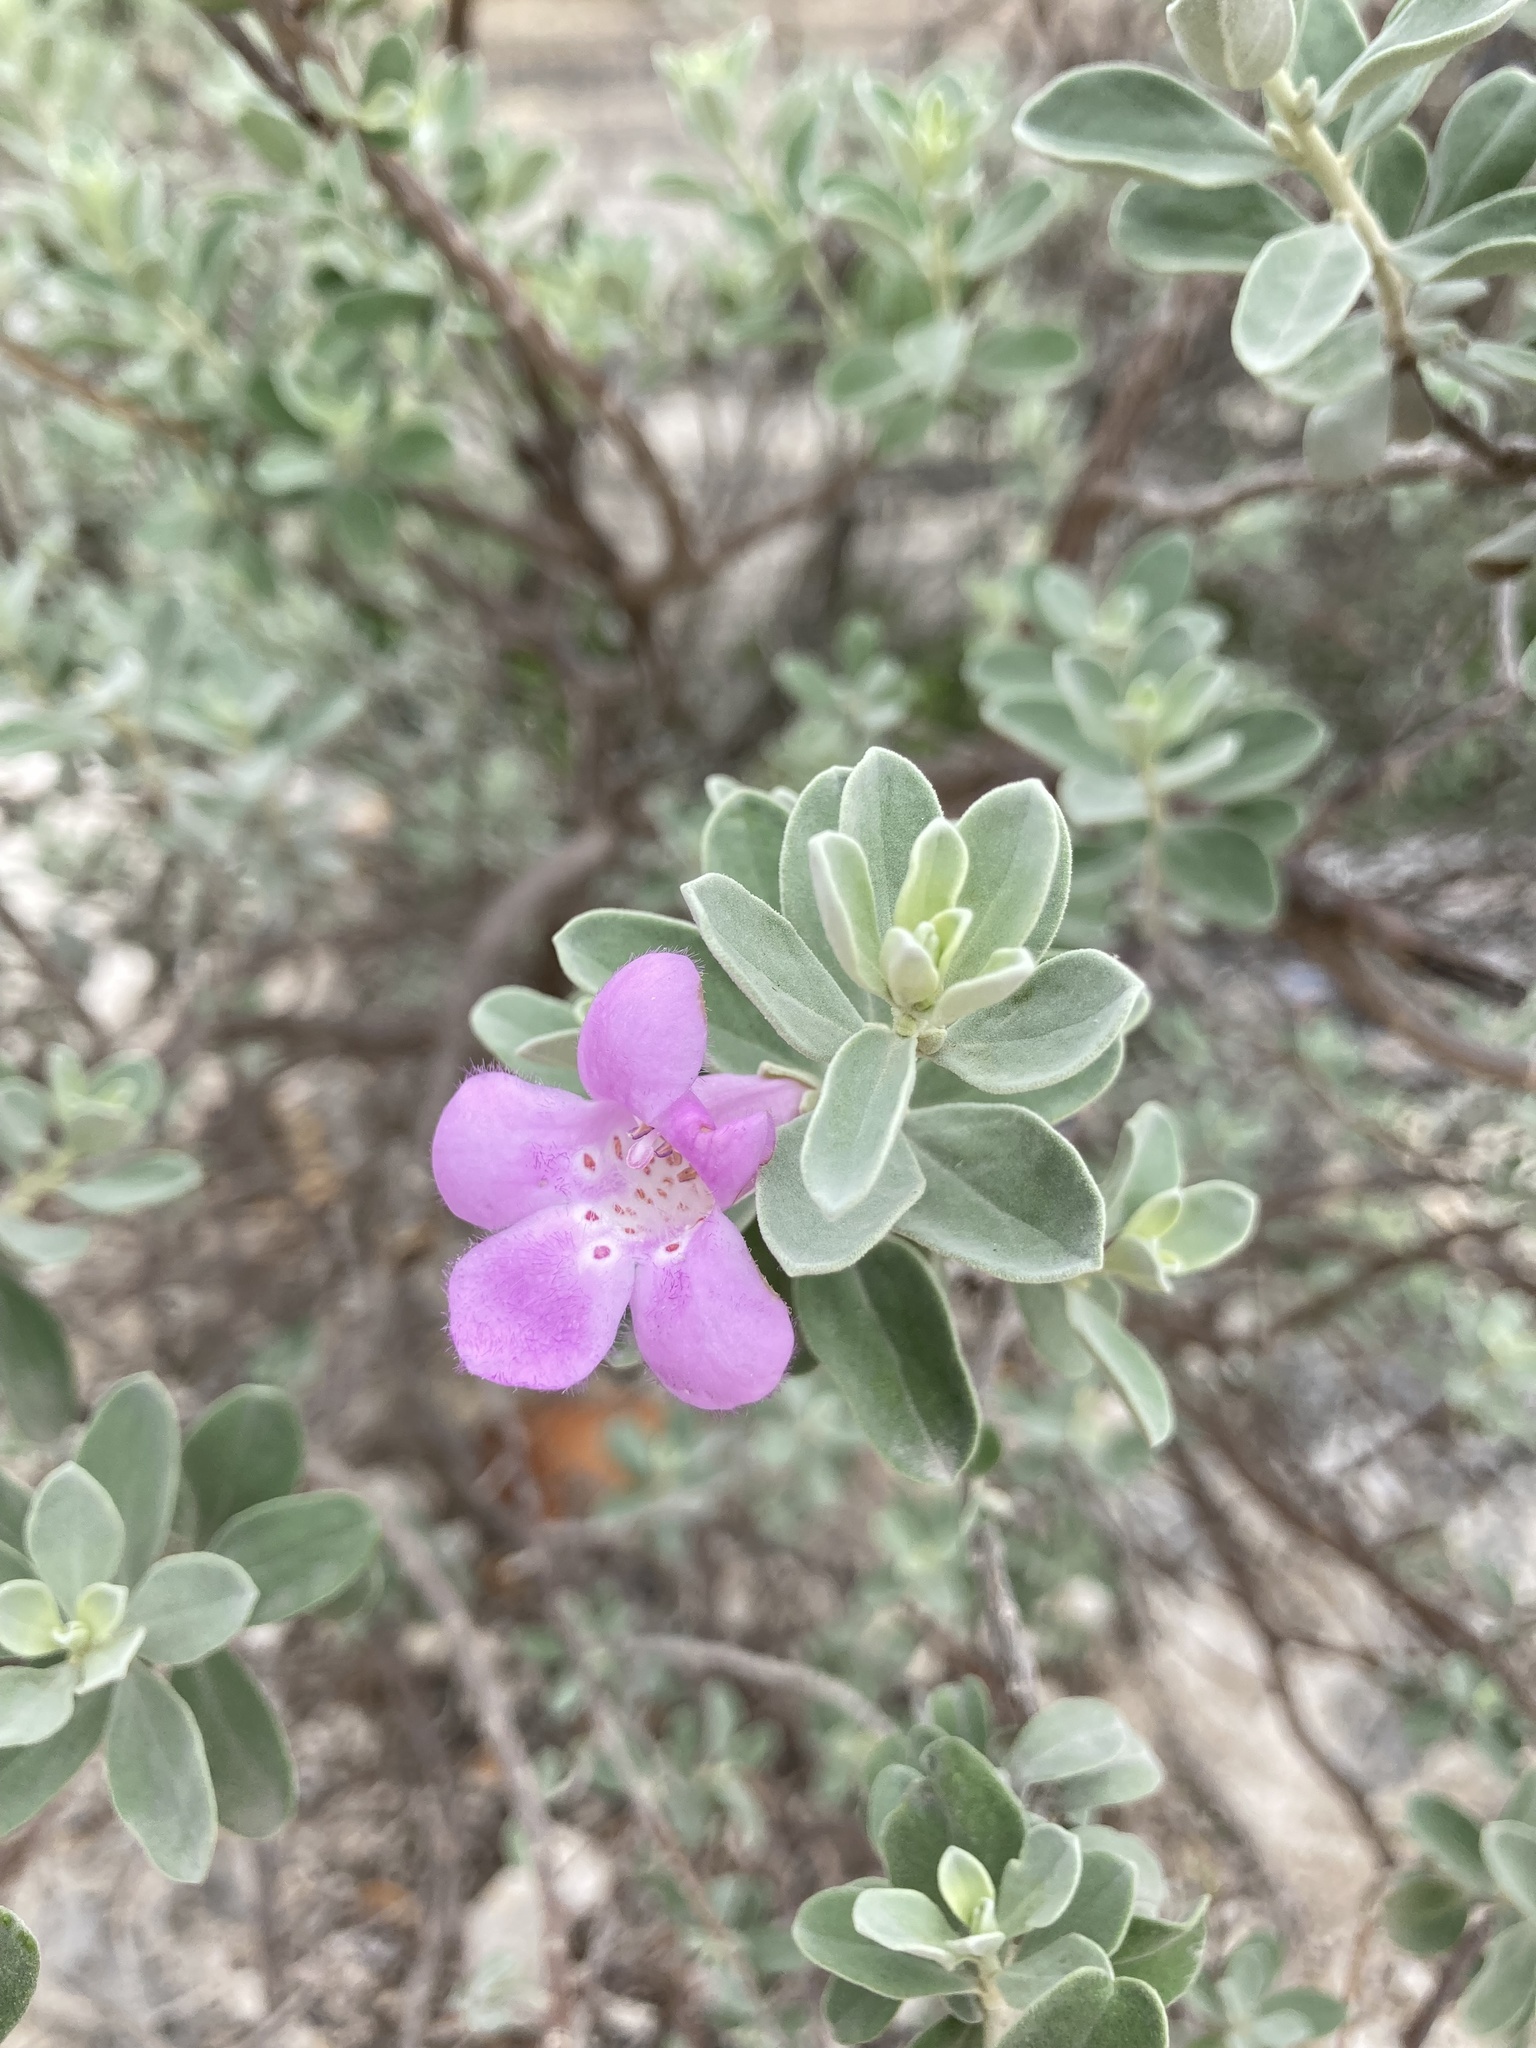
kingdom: Plantae
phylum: Tracheophyta
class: Magnoliopsida
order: Lamiales
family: Scrophulariaceae
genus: Leucophyllum
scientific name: Leucophyllum frutescens
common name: Texas silverleaf
